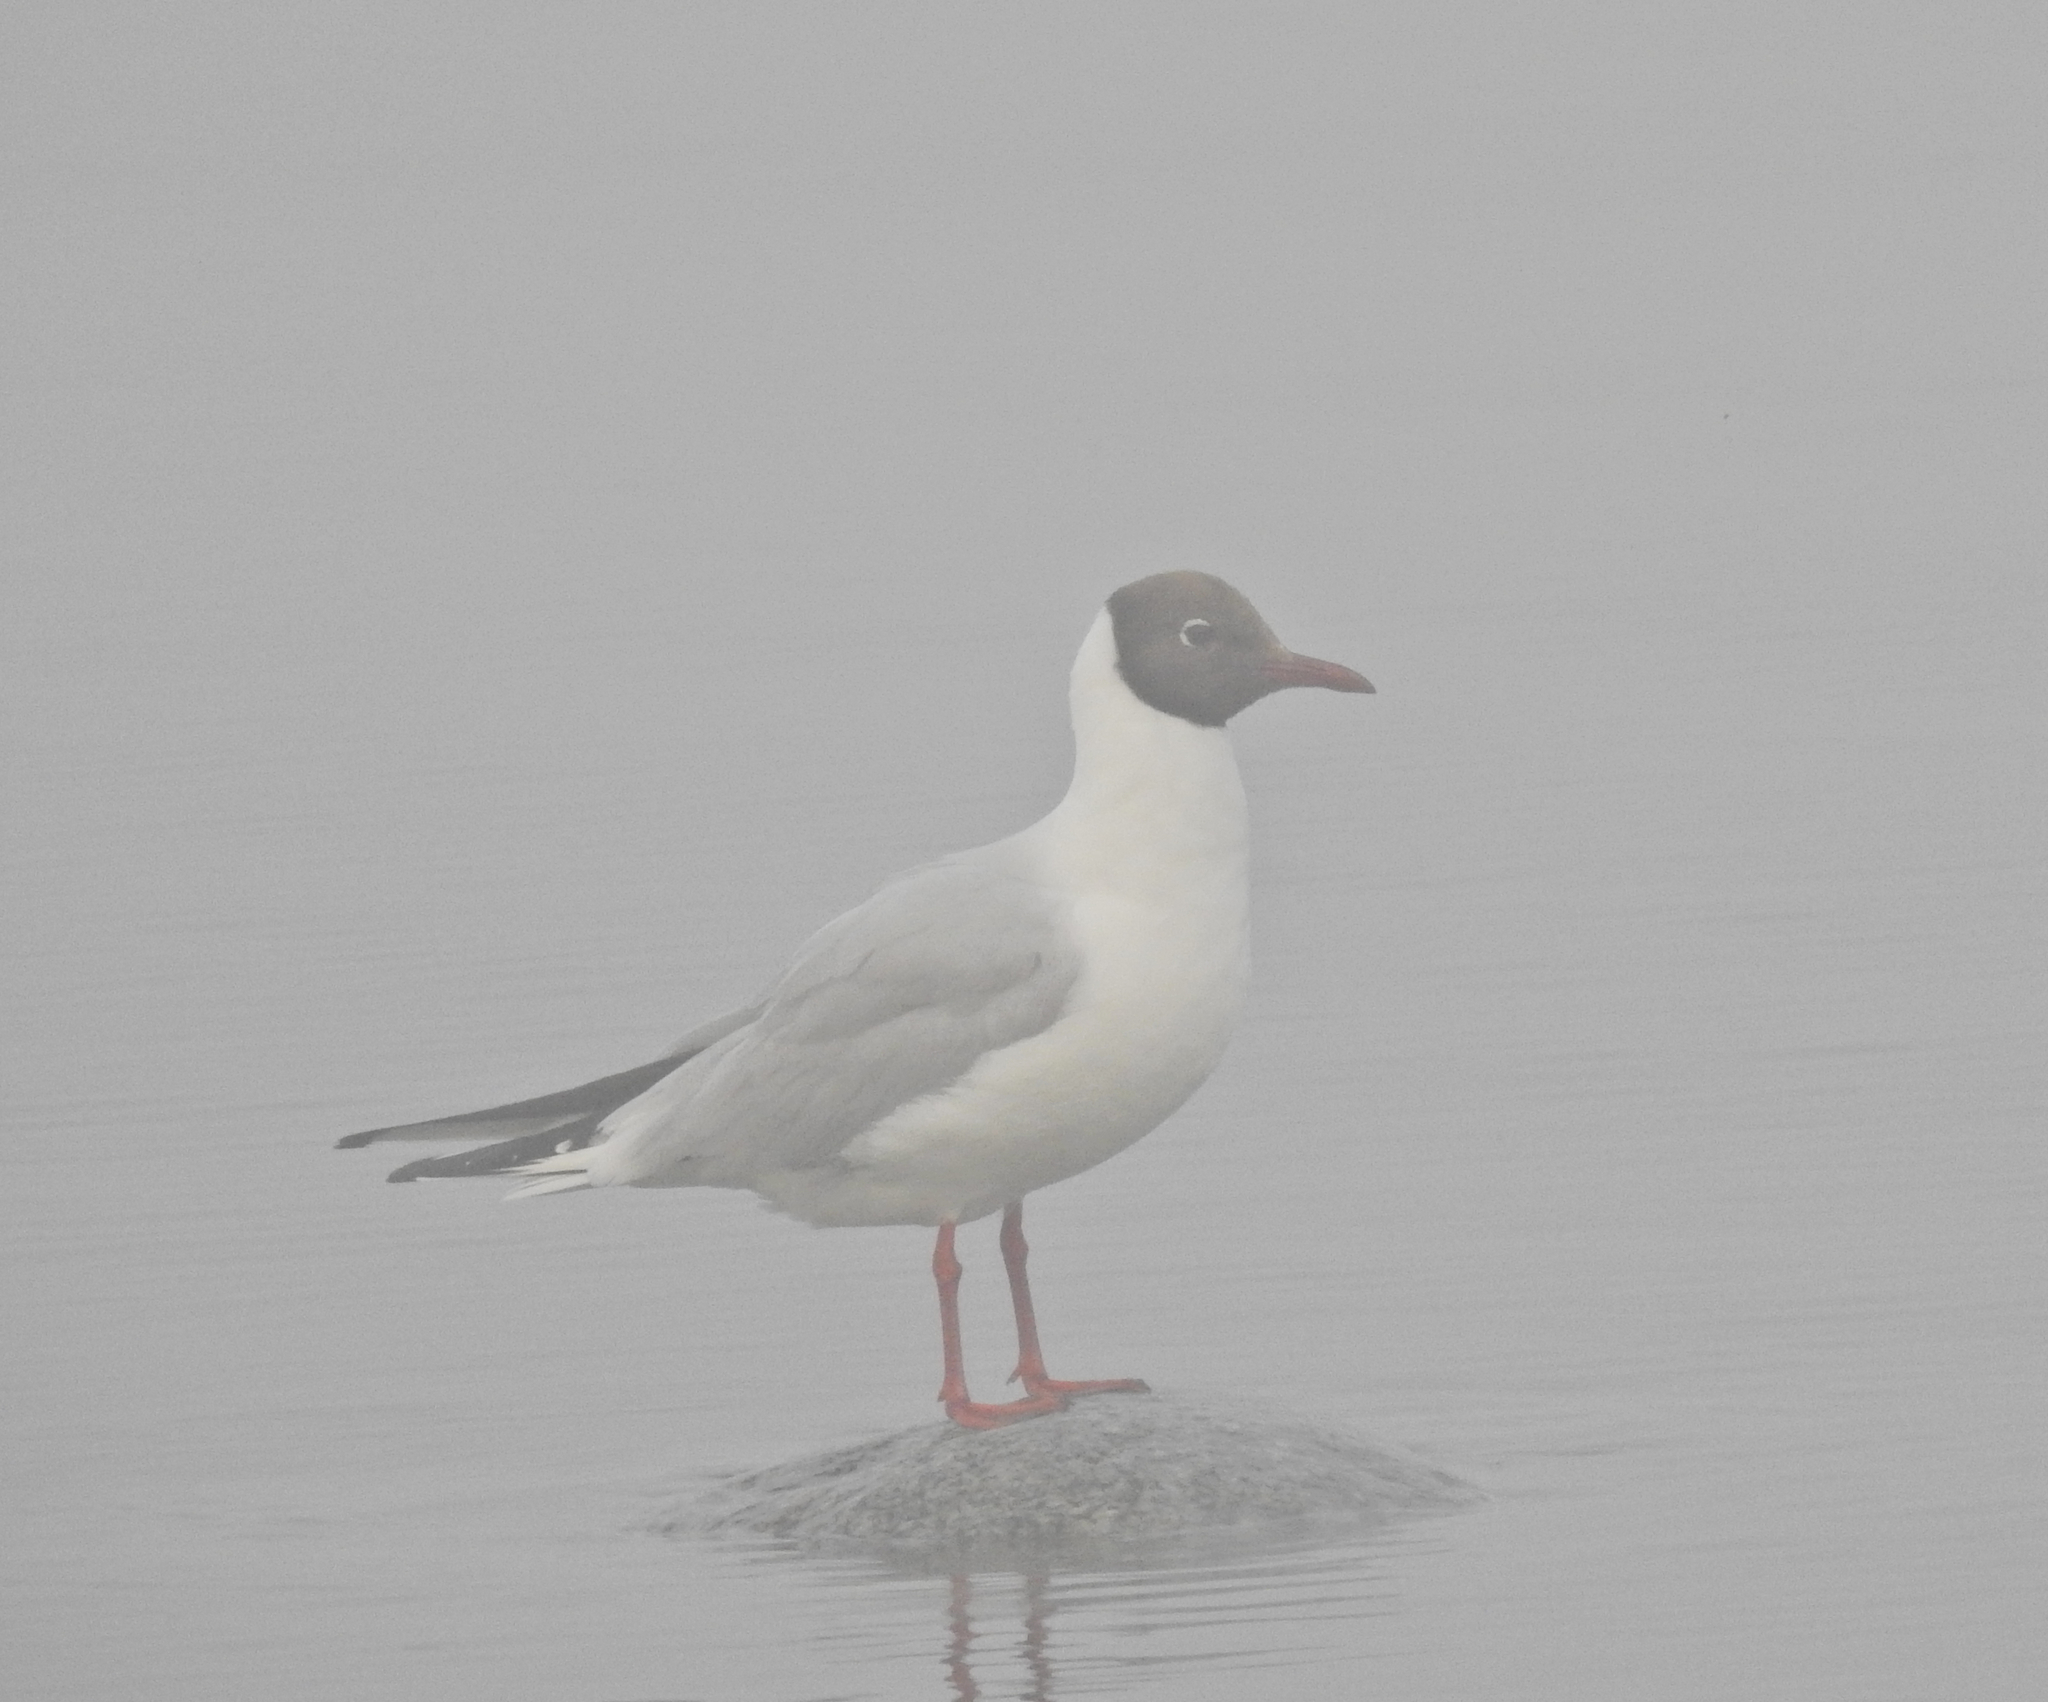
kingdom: Animalia
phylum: Chordata
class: Aves
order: Charadriiformes
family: Laridae
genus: Chroicocephalus
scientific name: Chroicocephalus ridibundus
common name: Black-headed gull
